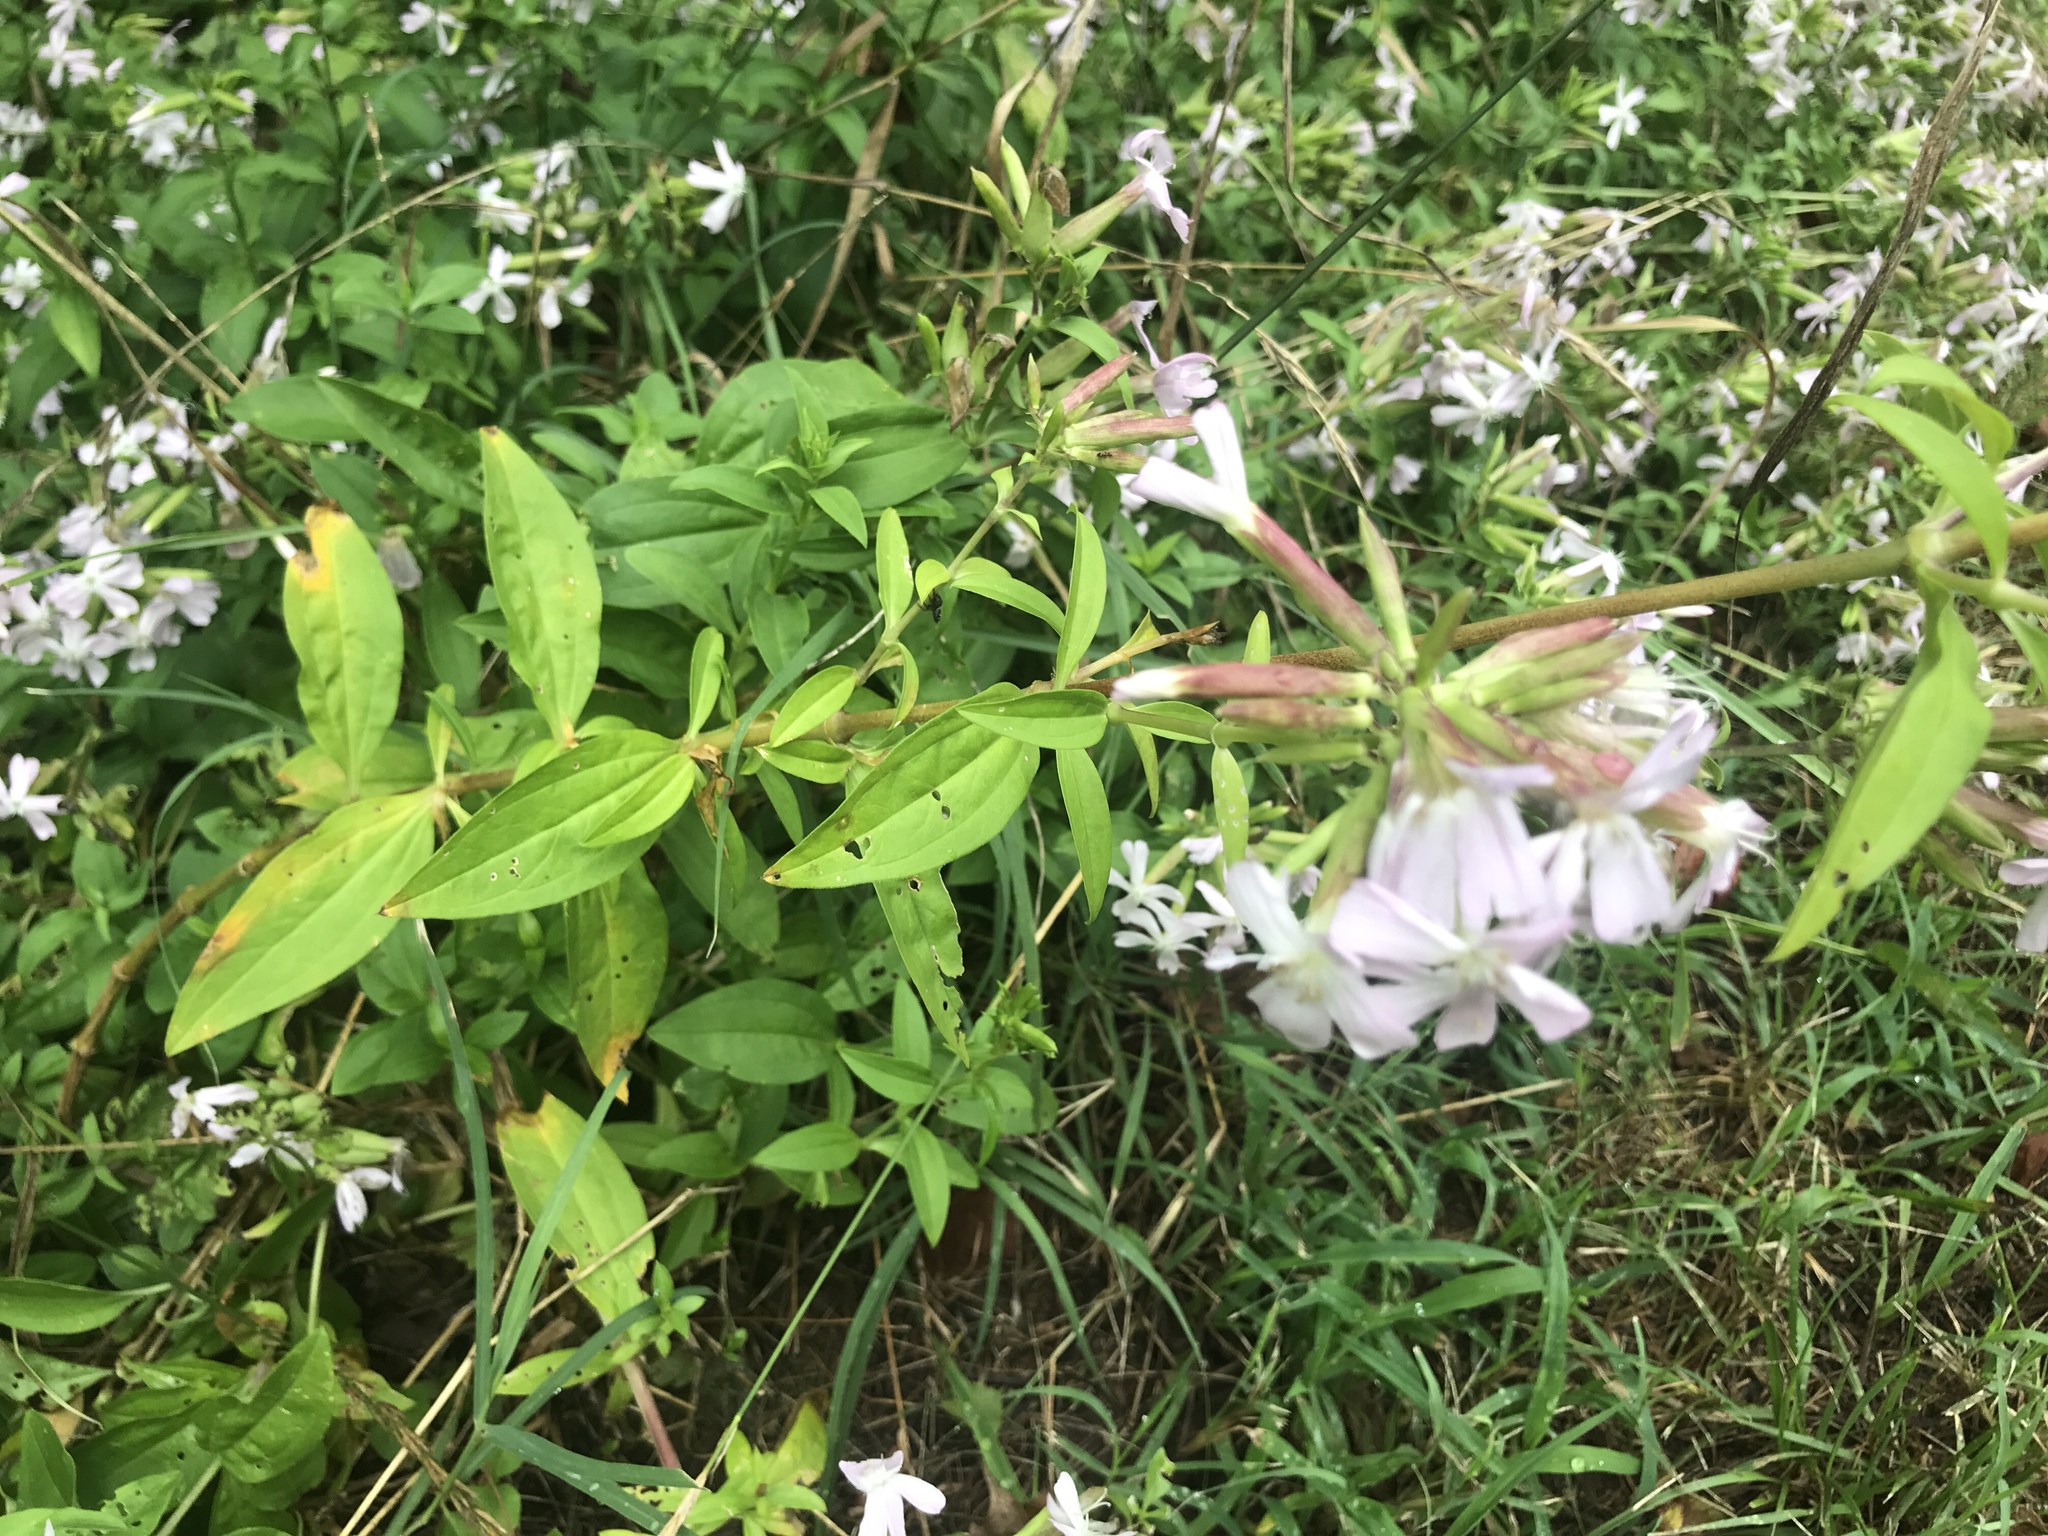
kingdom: Plantae
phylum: Tracheophyta
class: Magnoliopsida
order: Caryophyllales
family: Caryophyllaceae
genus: Saponaria
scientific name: Saponaria officinalis
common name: Soapwort
